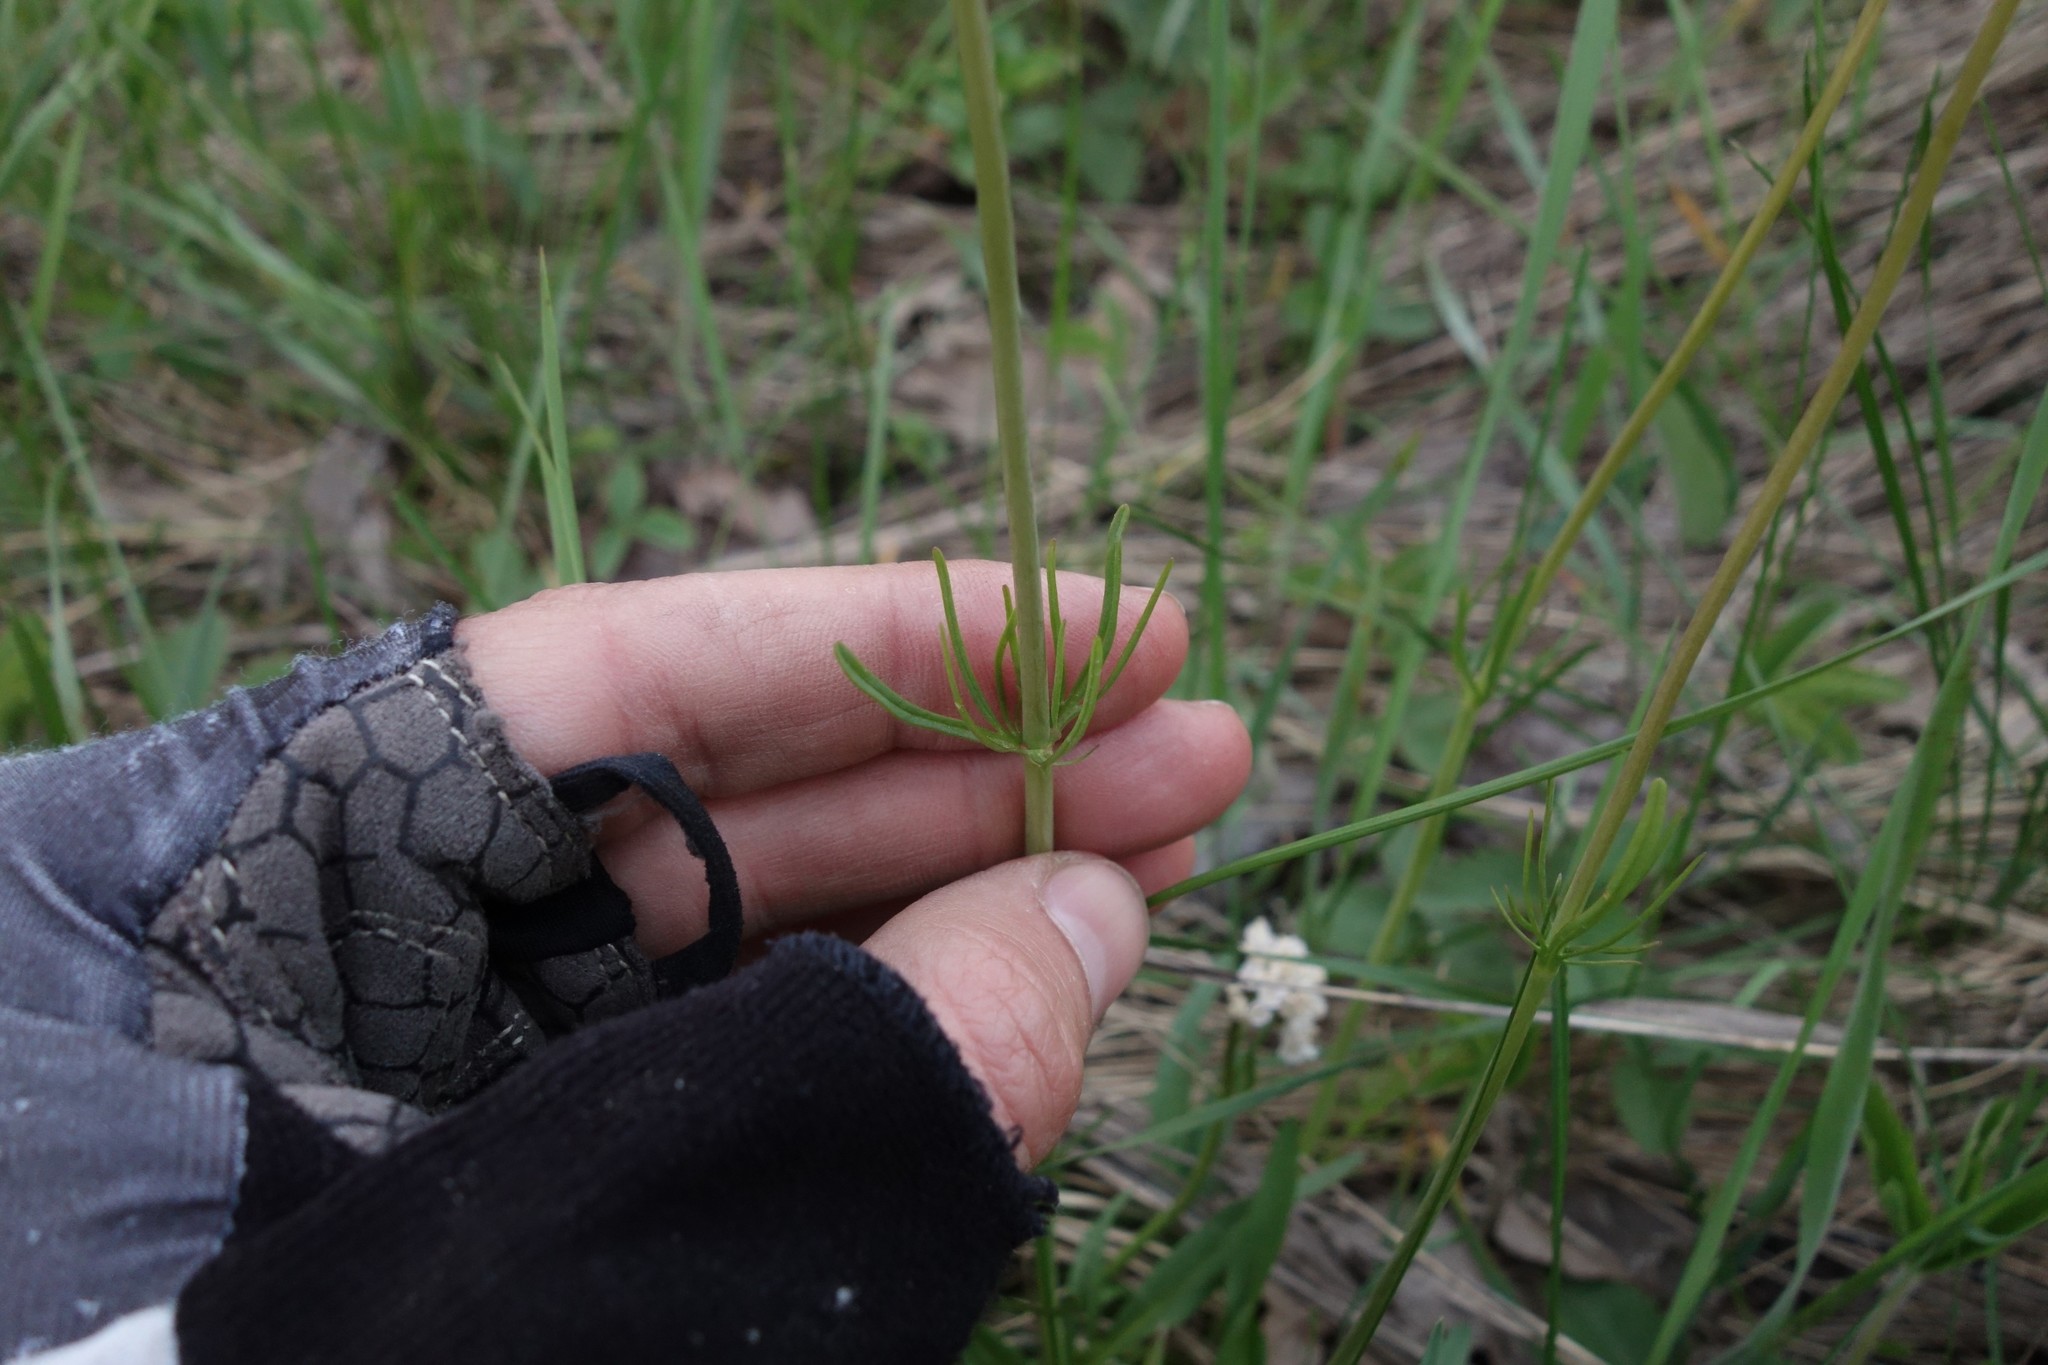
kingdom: Plantae
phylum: Tracheophyta
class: Magnoliopsida
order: Dipsacales
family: Caprifoliaceae
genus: Valeriana
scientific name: Valeriana tuberosa
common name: Tuberous valerian
